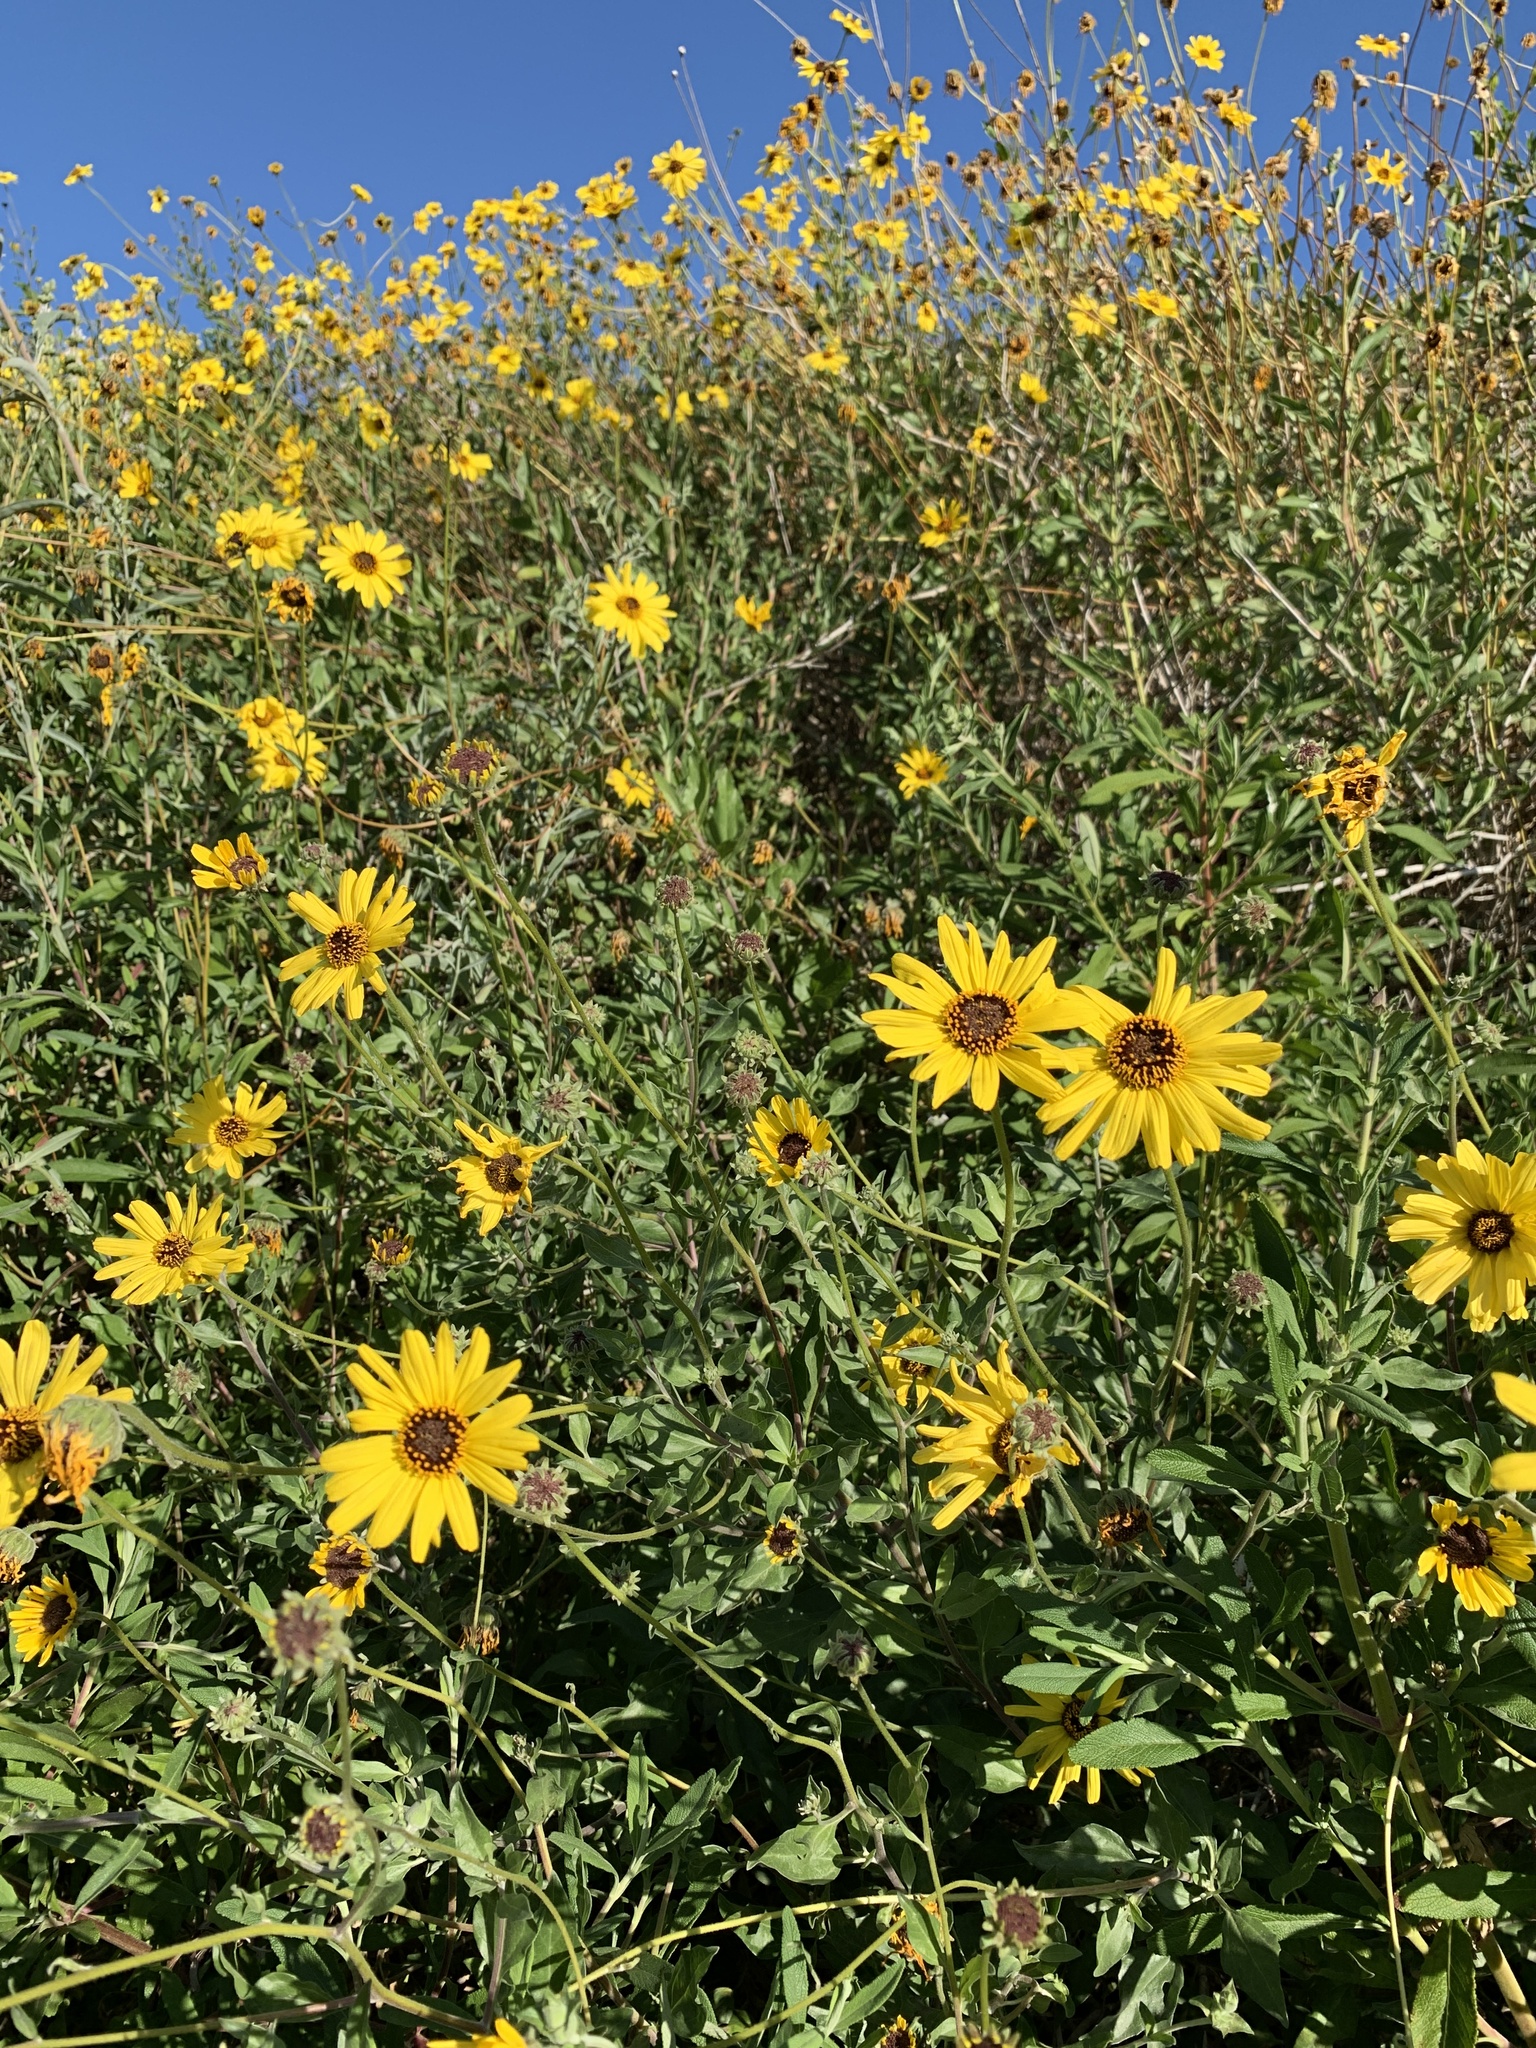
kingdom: Plantae
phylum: Tracheophyta
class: Magnoliopsida
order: Asterales
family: Asteraceae
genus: Encelia
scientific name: Encelia californica
